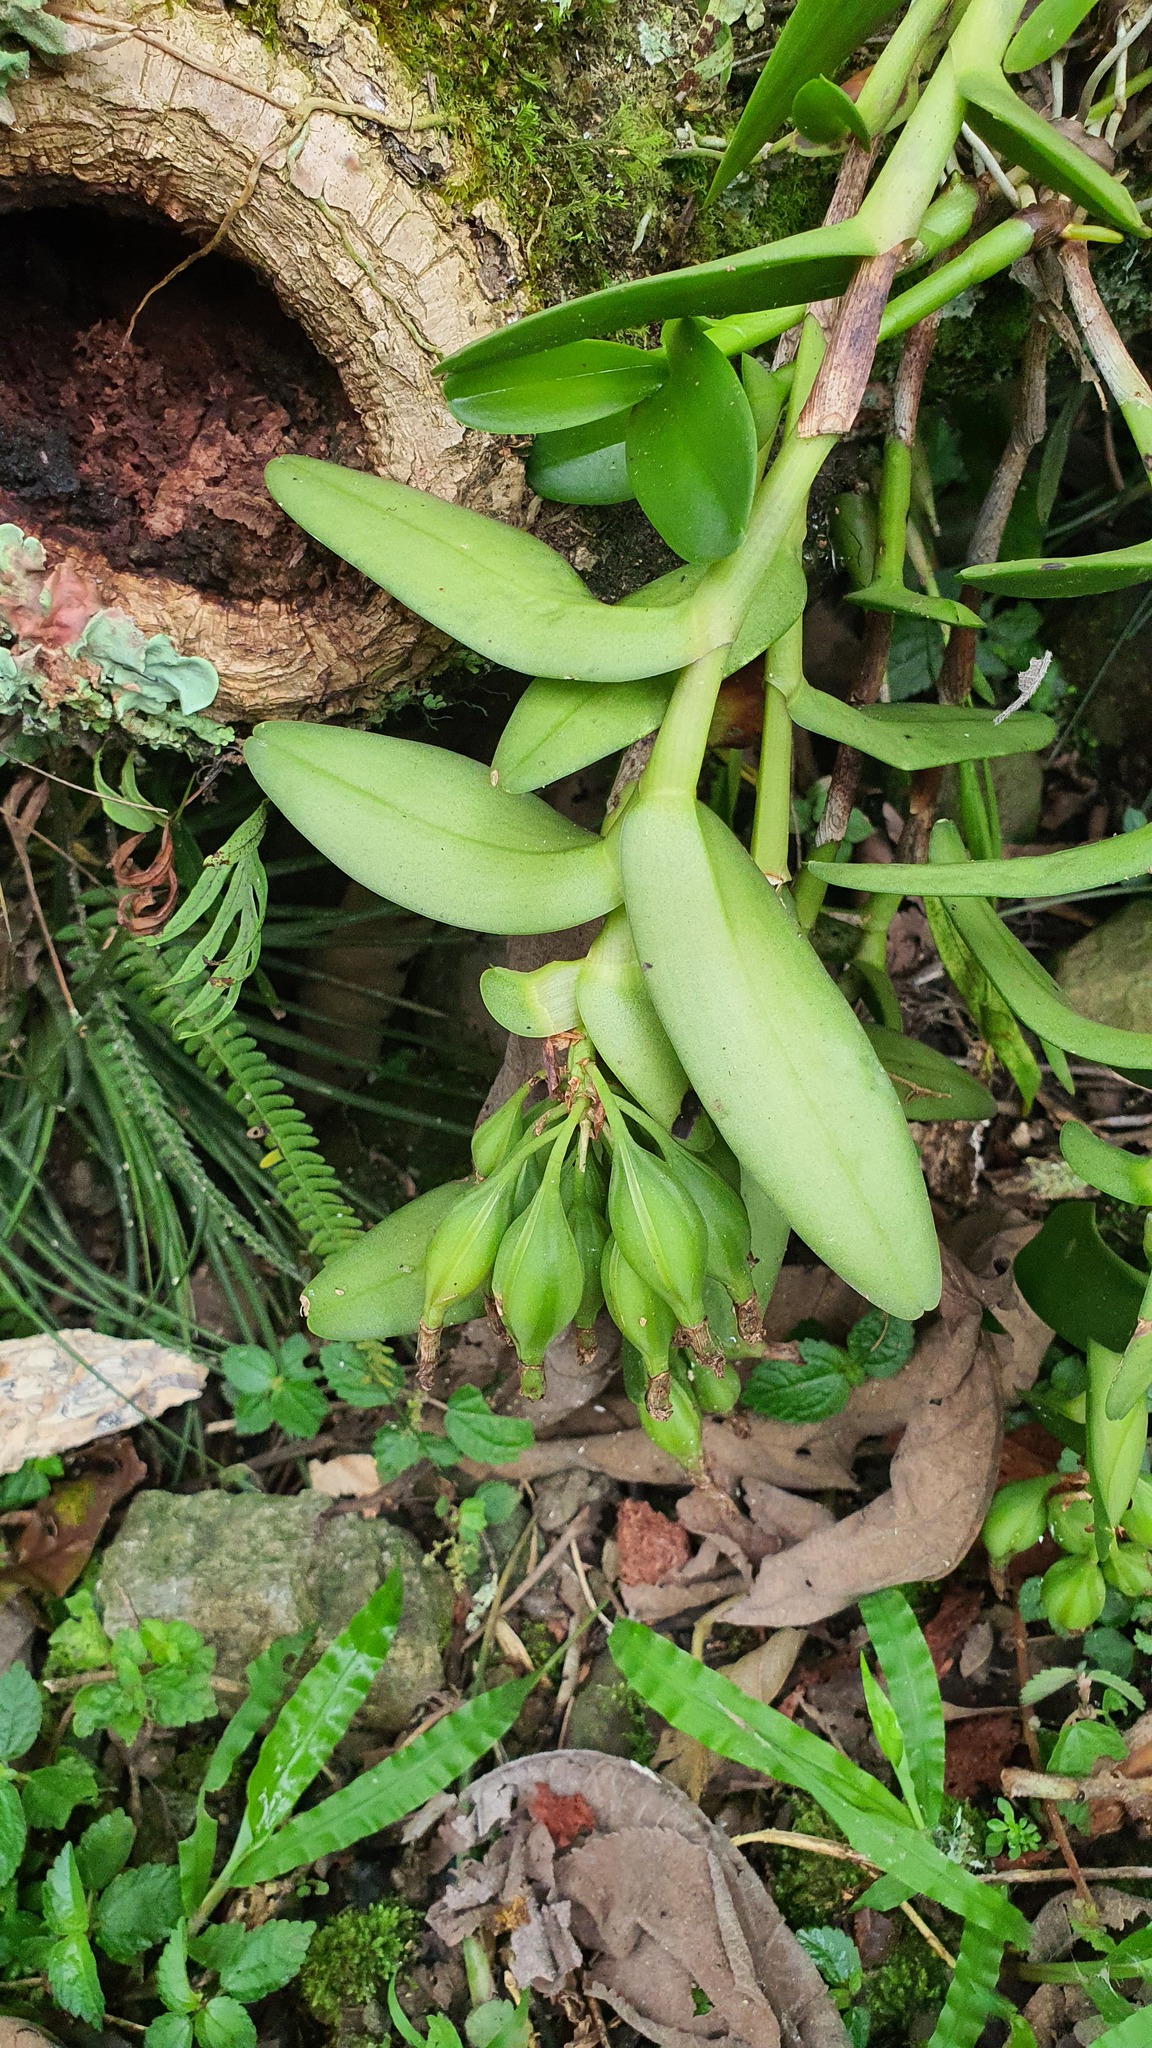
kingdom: Plantae
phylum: Tracheophyta
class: Liliopsida
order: Asparagales
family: Orchidaceae
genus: Epidendrum
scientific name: Epidendrum melistagum
